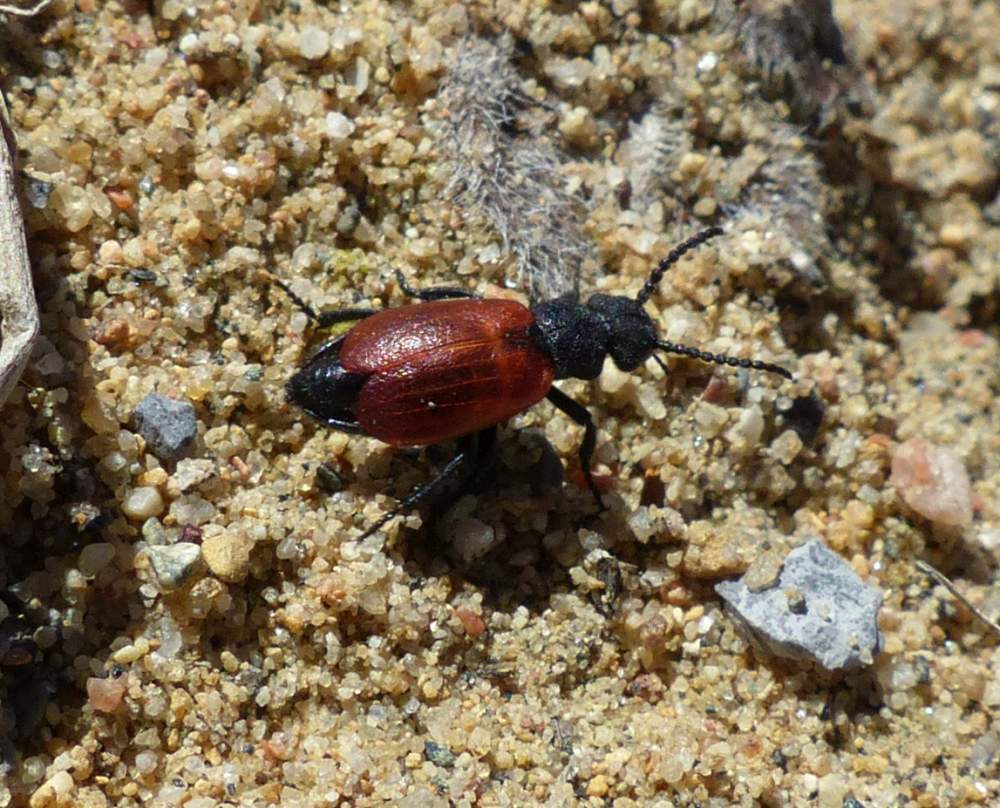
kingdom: Animalia
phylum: Arthropoda
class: Insecta
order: Coleoptera
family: Meloidae
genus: Tricrania
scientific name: Tricrania sanguinipennis
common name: Blood-winged blister beetle
